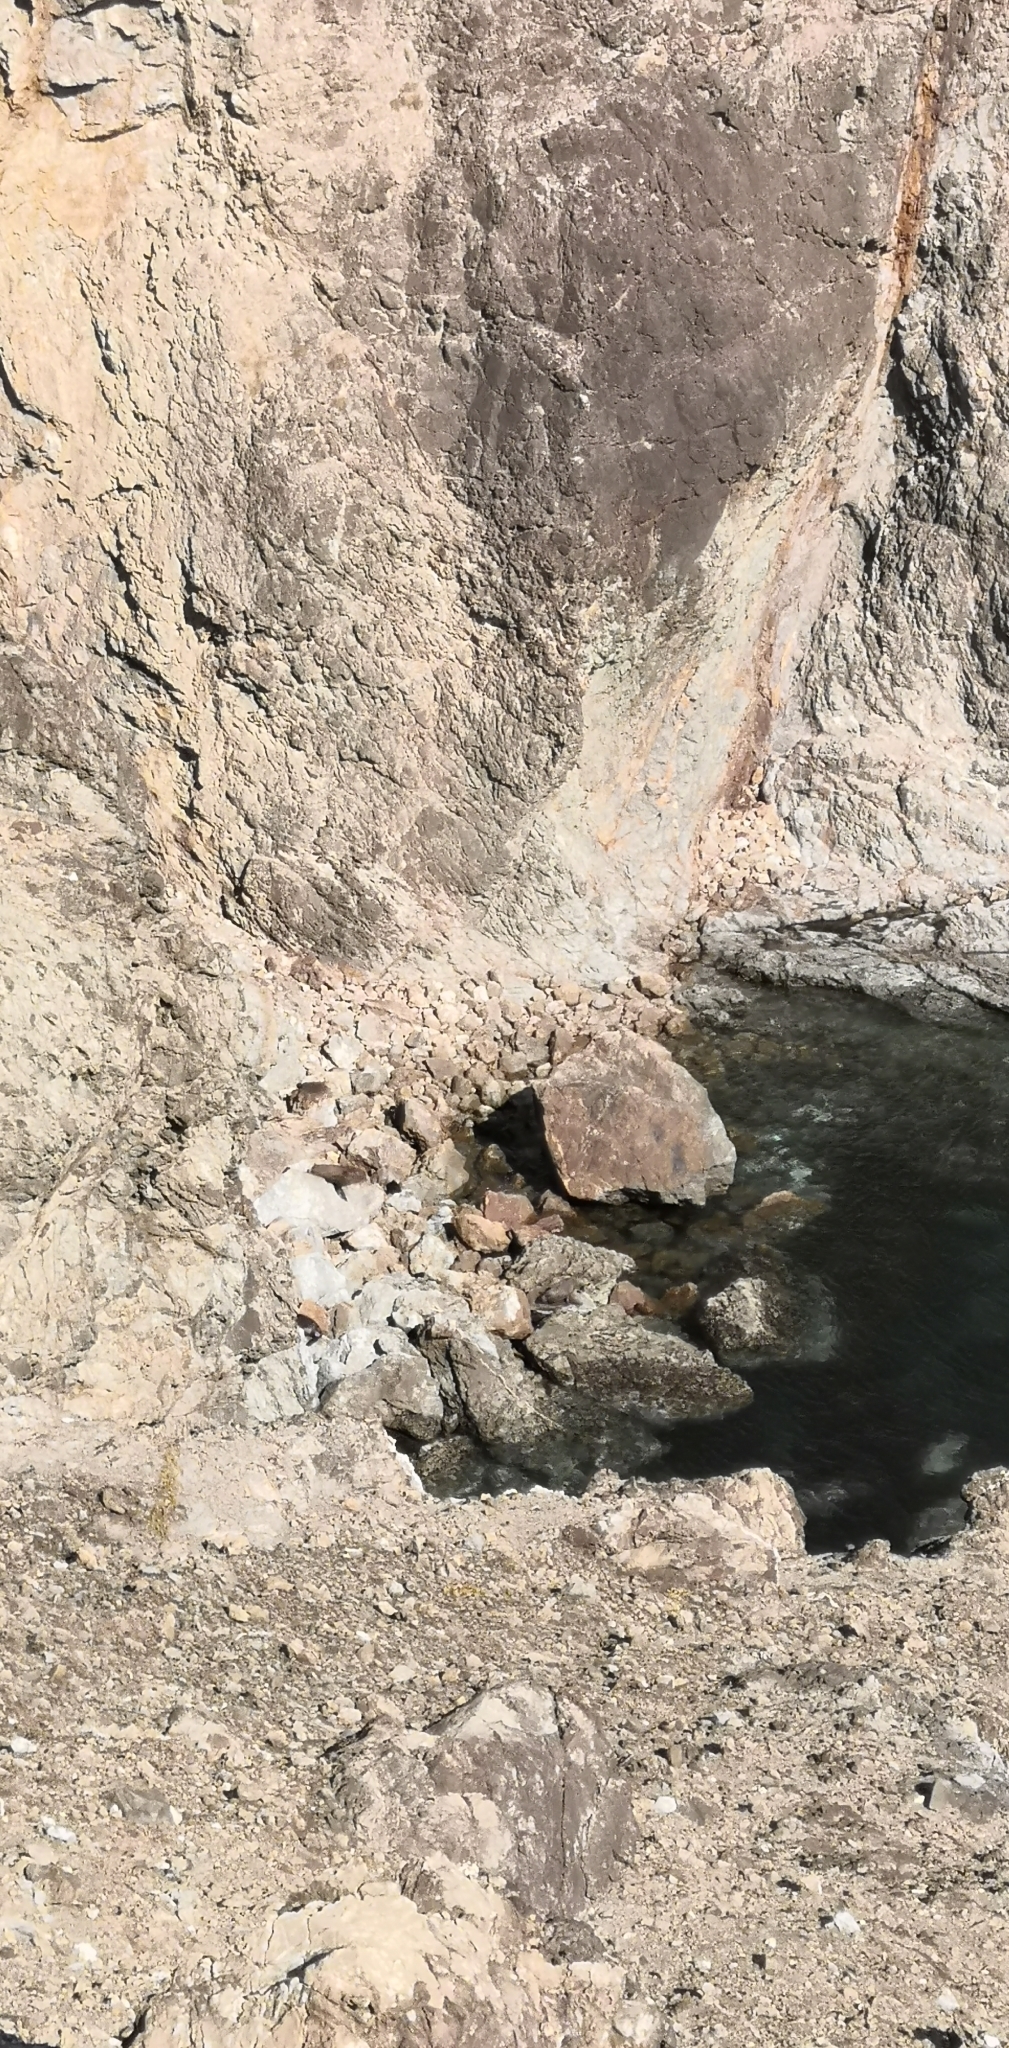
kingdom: Animalia
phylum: Chordata
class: Mammalia
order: Carnivora
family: Otariidae
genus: Arctocephalus
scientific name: Arctocephalus forsteri
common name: New zealand fur seal
